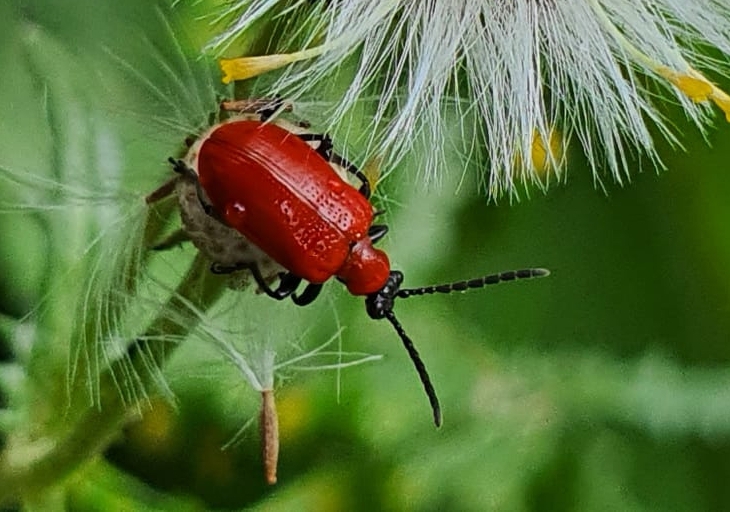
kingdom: Animalia
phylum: Arthropoda
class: Insecta
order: Coleoptera
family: Chrysomelidae
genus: Lilioceris
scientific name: Lilioceris lilii
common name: Lily beetle
